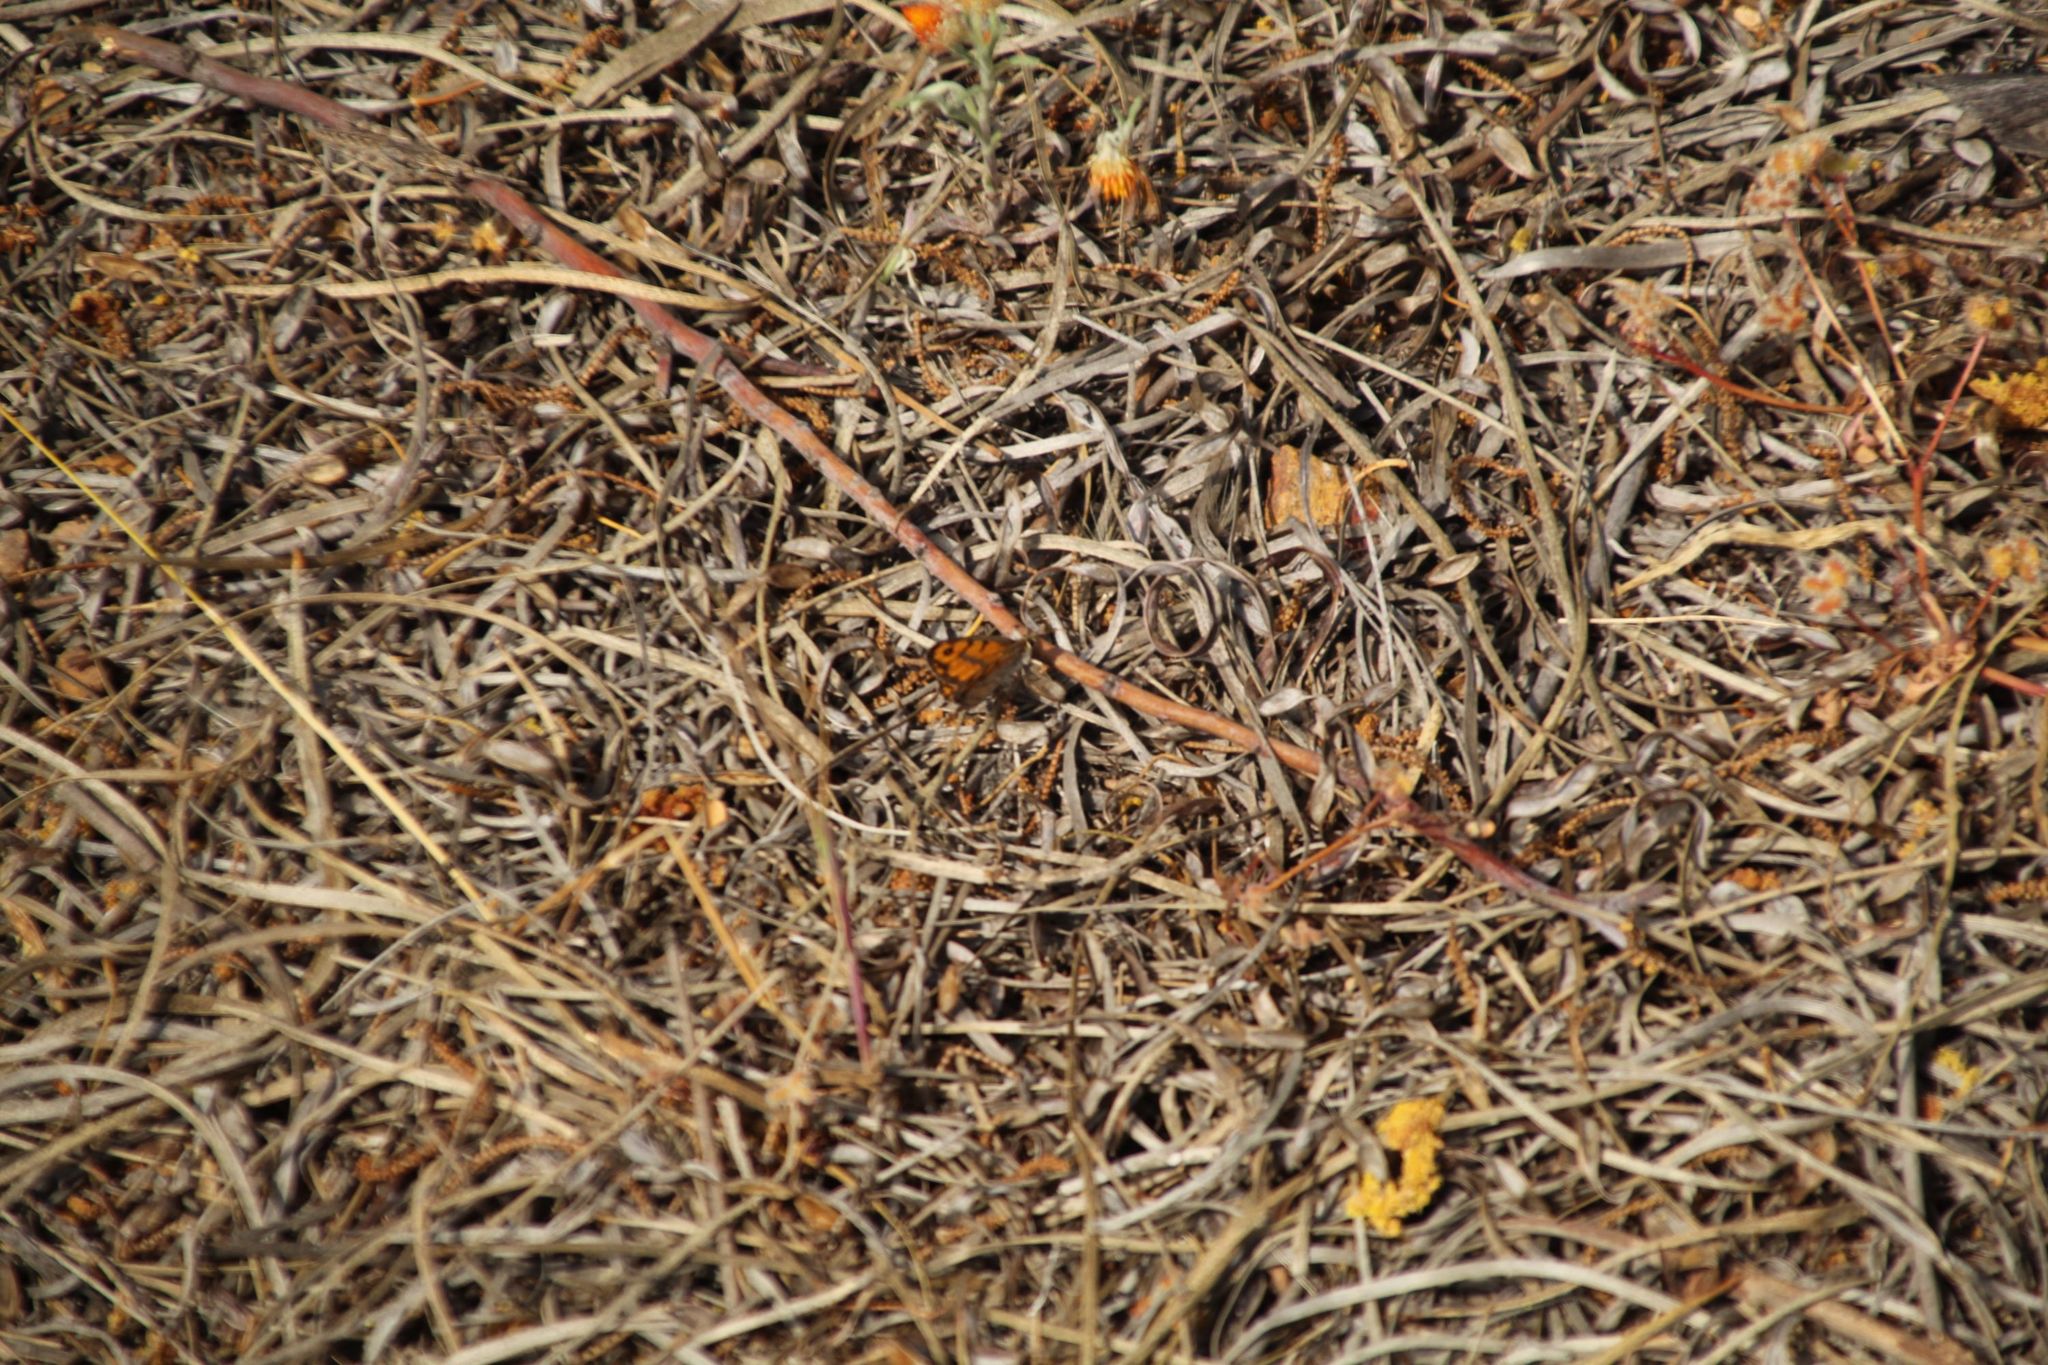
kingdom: Animalia
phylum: Arthropoda
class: Insecta
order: Lepidoptera
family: Nymphalidae
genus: Geitoneura
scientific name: Geitoneura minyas
